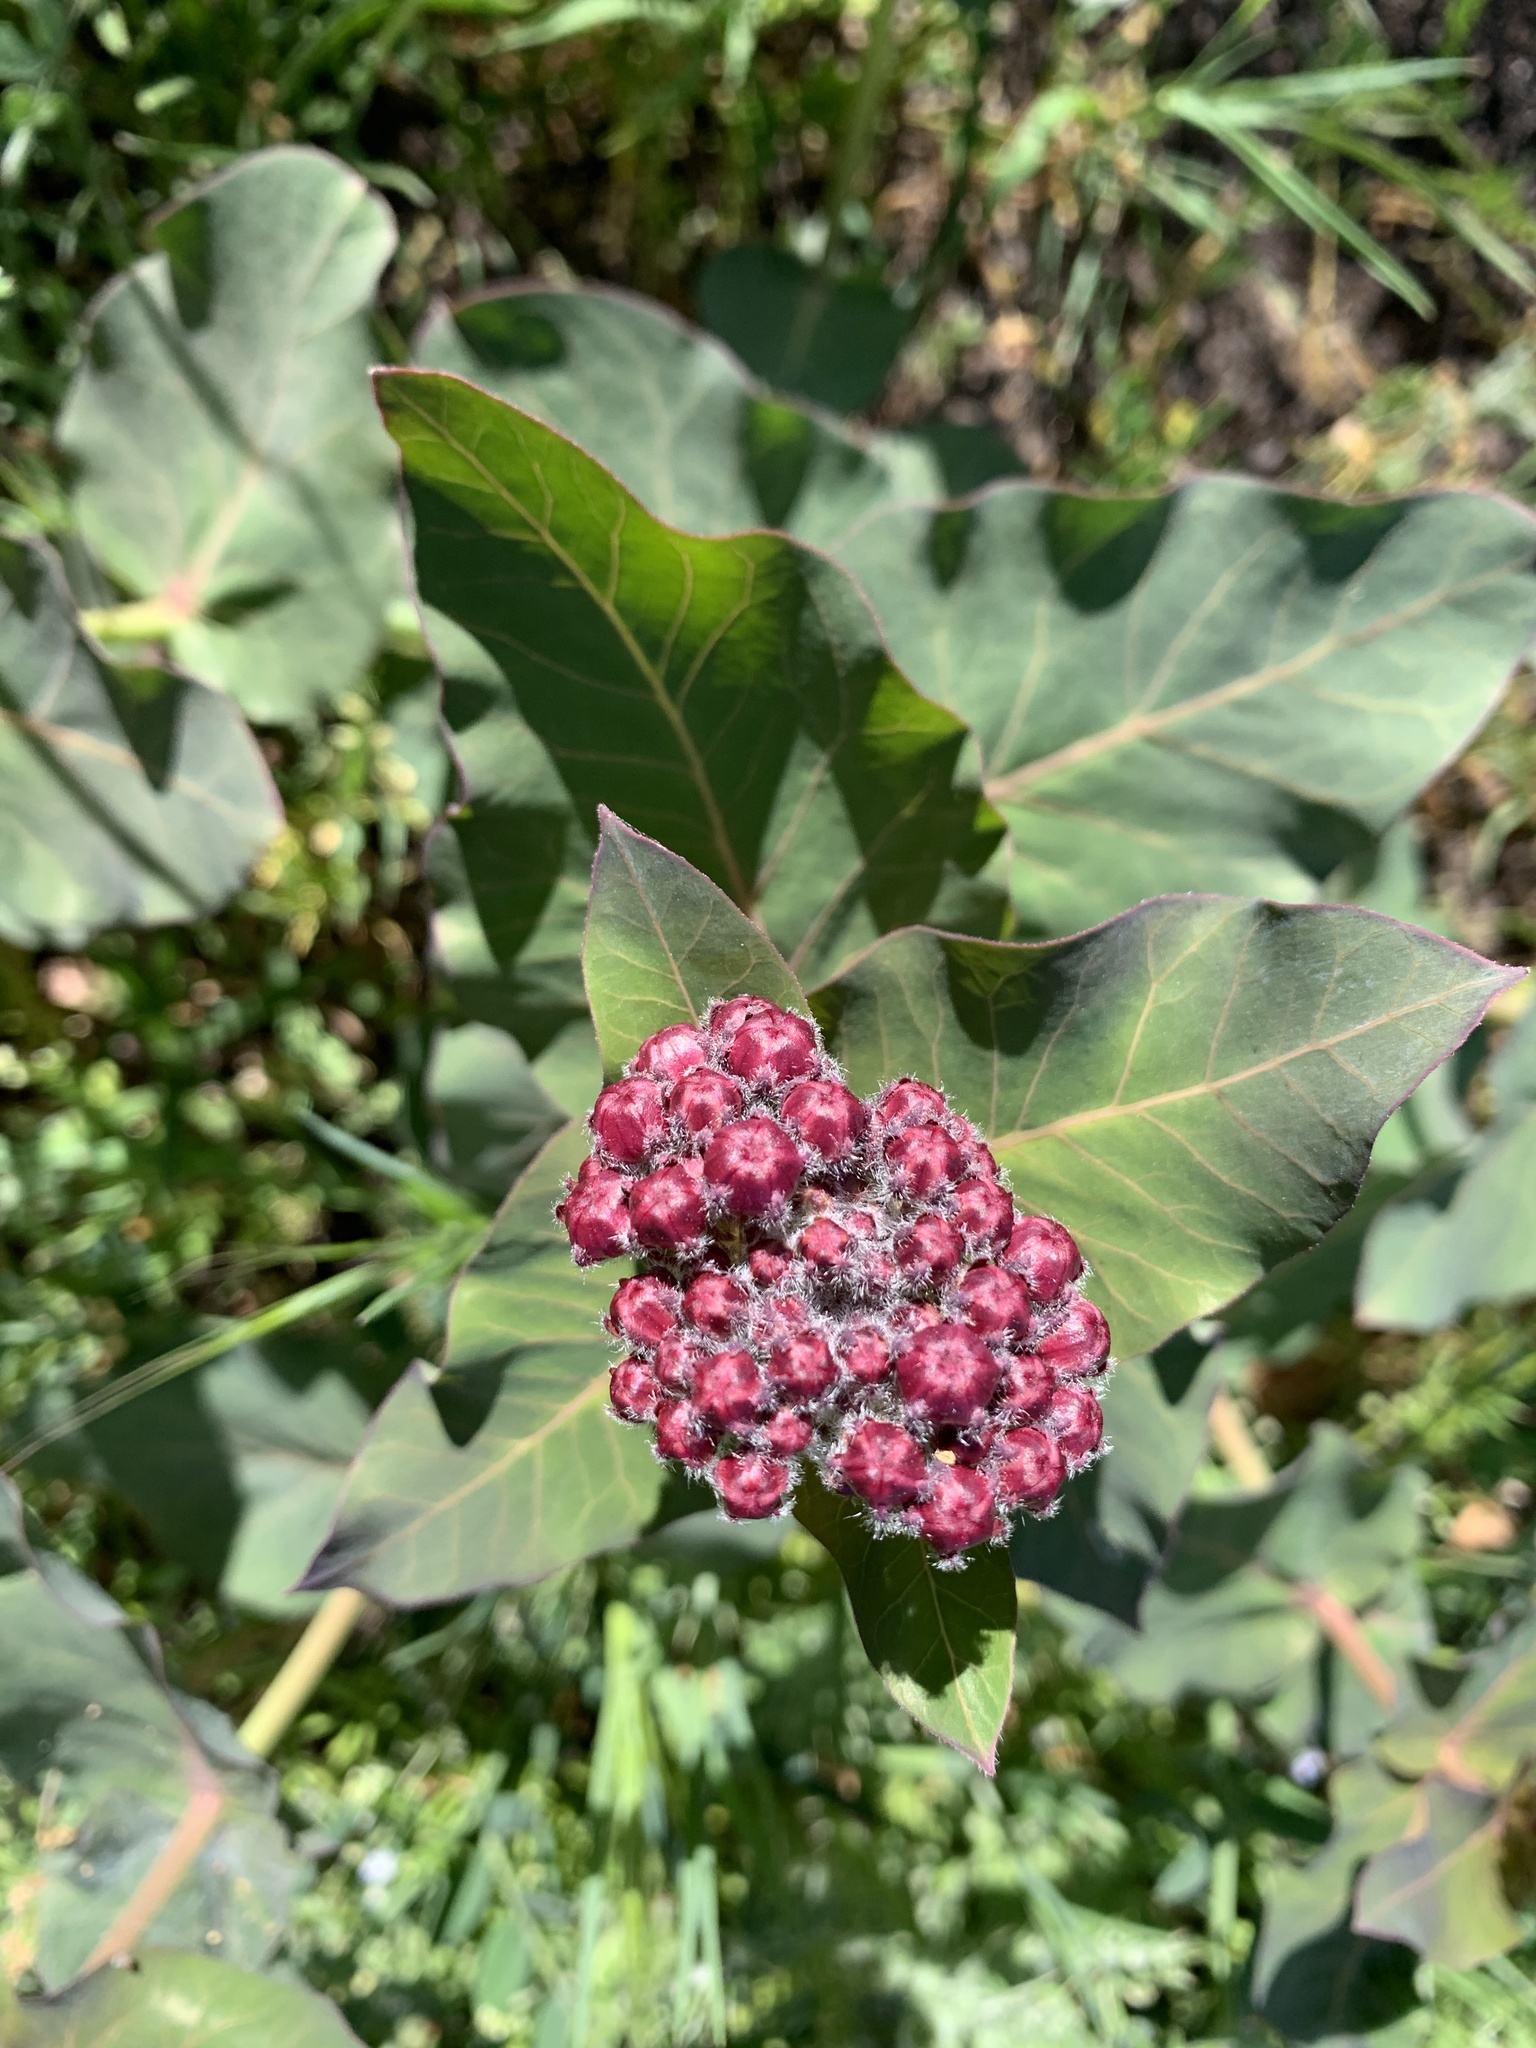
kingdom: Plantae
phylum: Tracheophyta
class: Magnoliopsida
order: Gentianales
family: Apocynaceae
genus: Asclepias
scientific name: Asclepias cordifolia
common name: Purple milkweed
